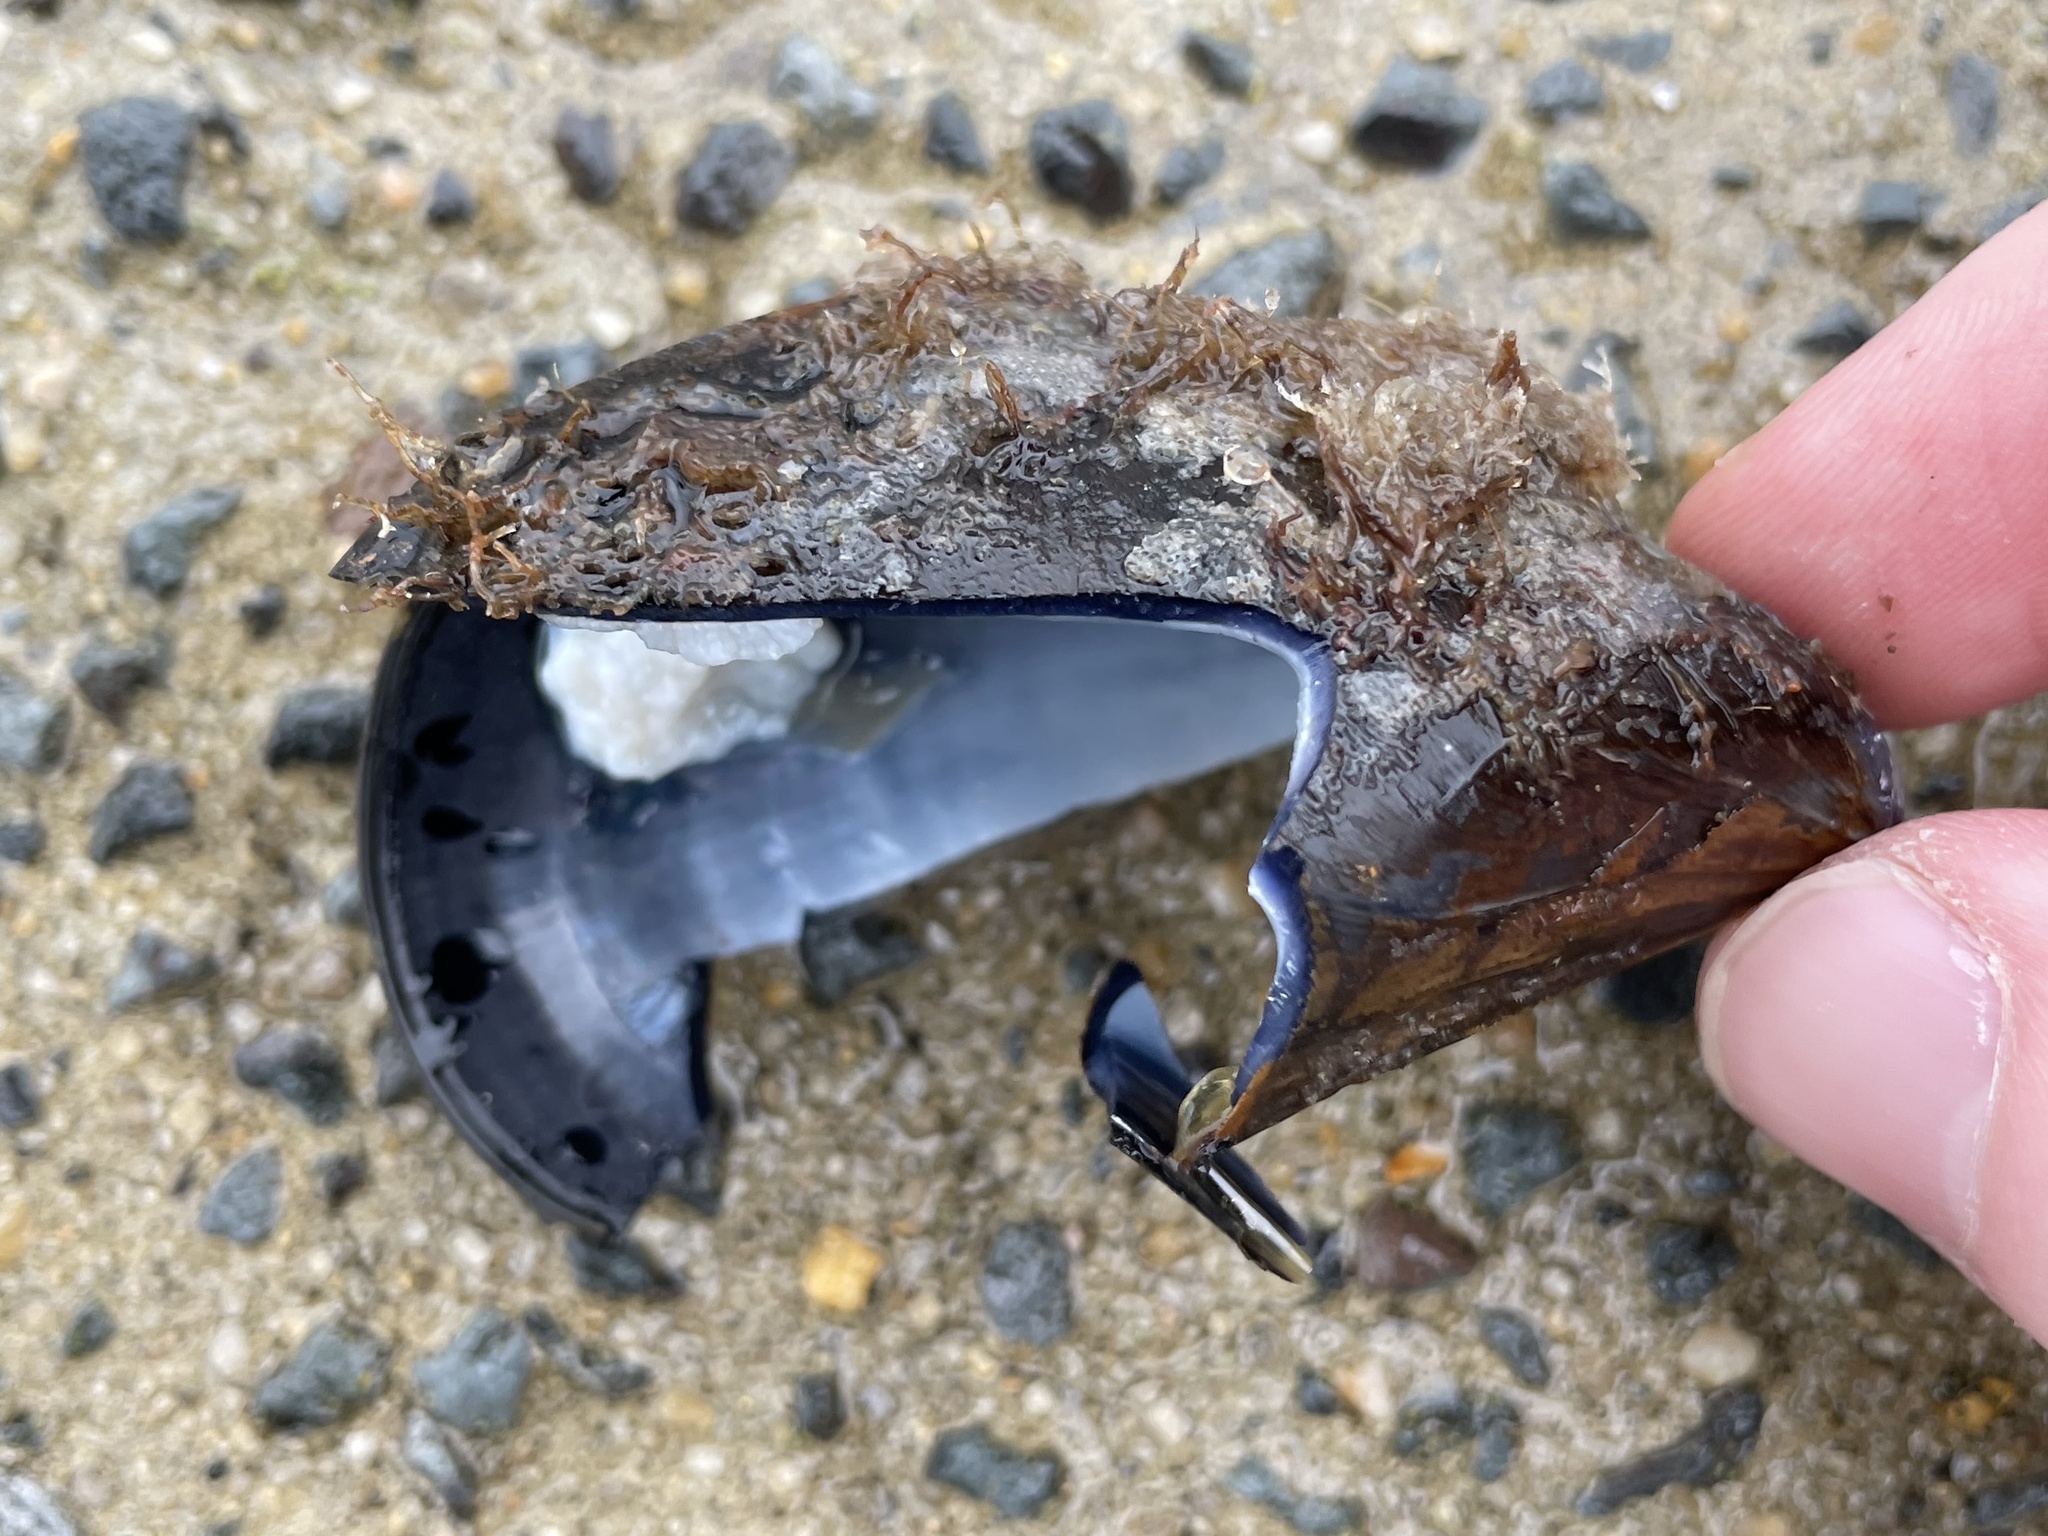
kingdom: Animalia
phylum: Mollusca
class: Bivalvia
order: Mytilida
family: Mytilidae
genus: Mytilus
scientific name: Mytilus edulis
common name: Blue mussel
